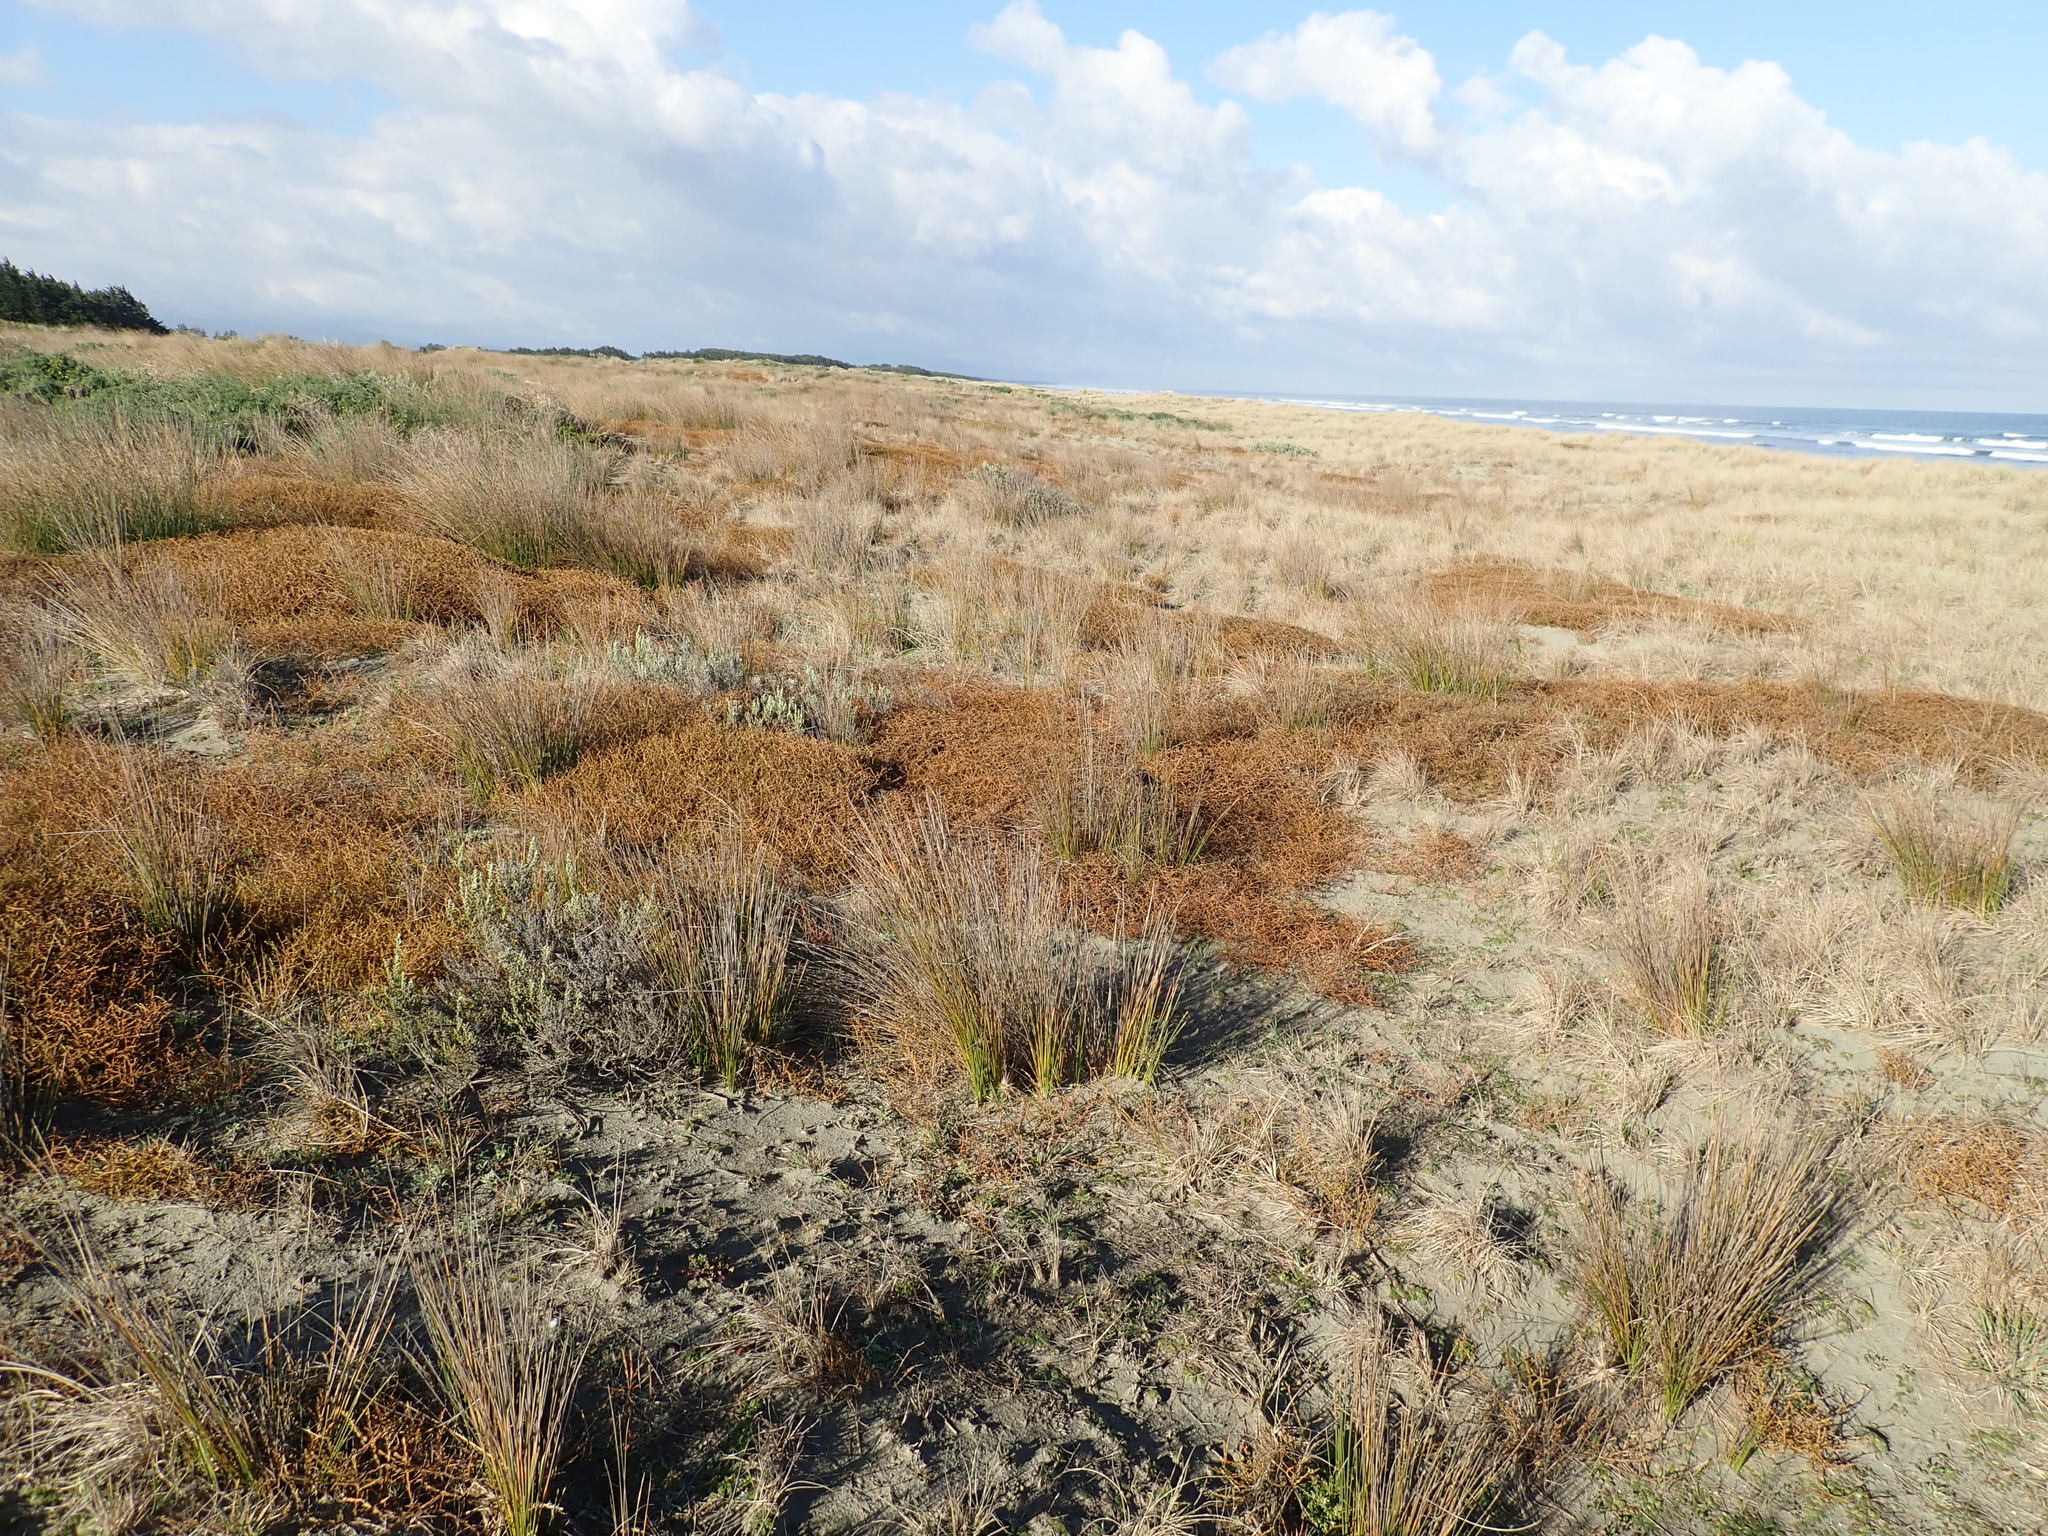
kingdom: Plantae
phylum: Tracheophyta
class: Magnoliopsida
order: Gentianales
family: Rubiaceae
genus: Coprosma
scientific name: Coprosma acerosa
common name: Sand coprosma
